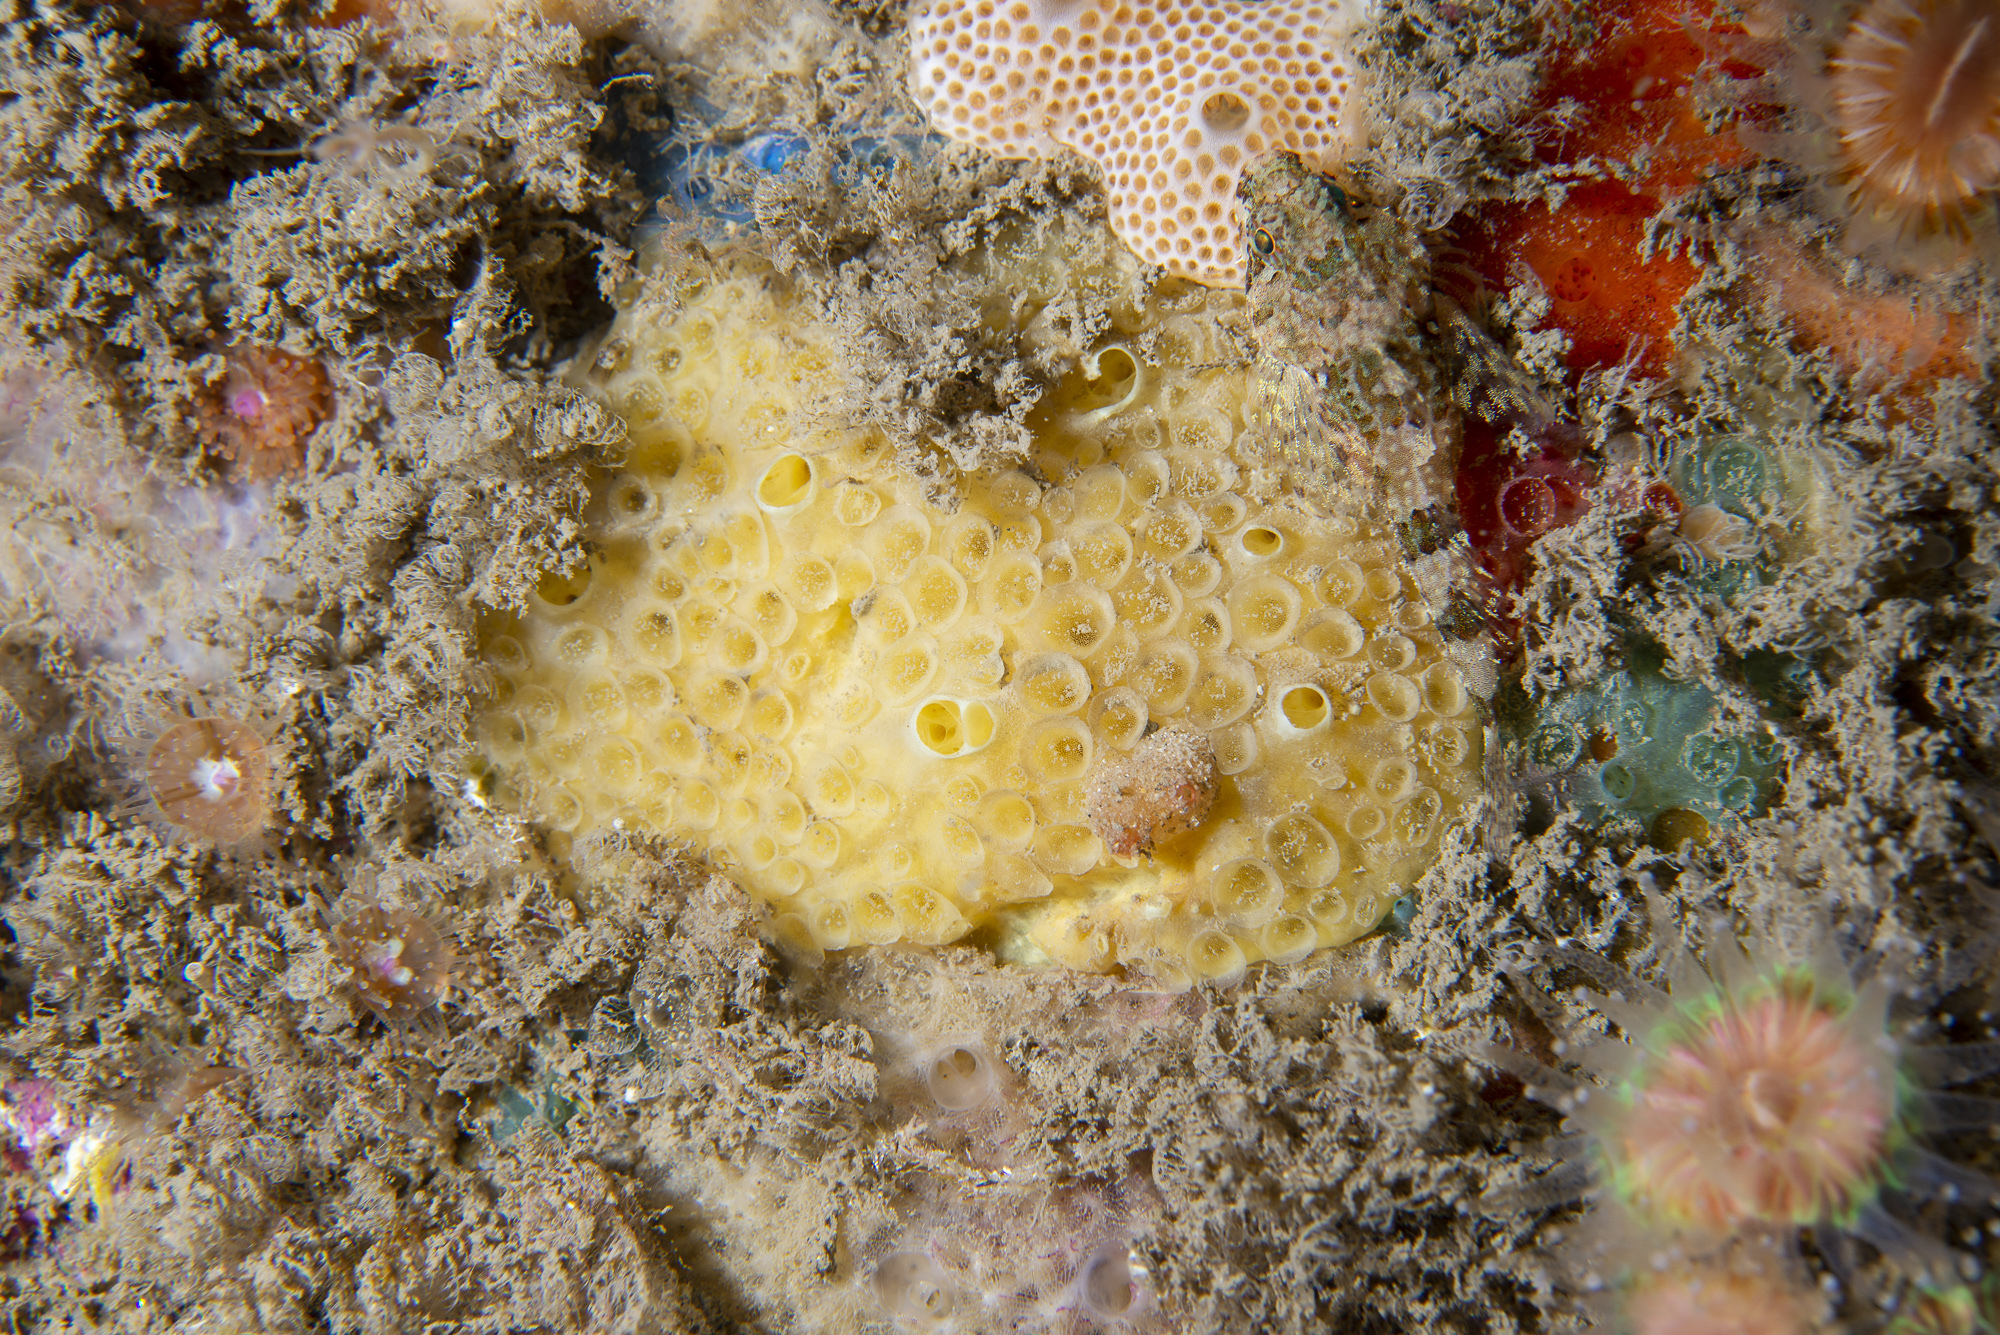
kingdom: Animalia
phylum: Porifera
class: Demospongiae
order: Poecilosclerida
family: Coelosphaeridae
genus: Lissodendoryx
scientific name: Lissodendoryx jenjonesae
